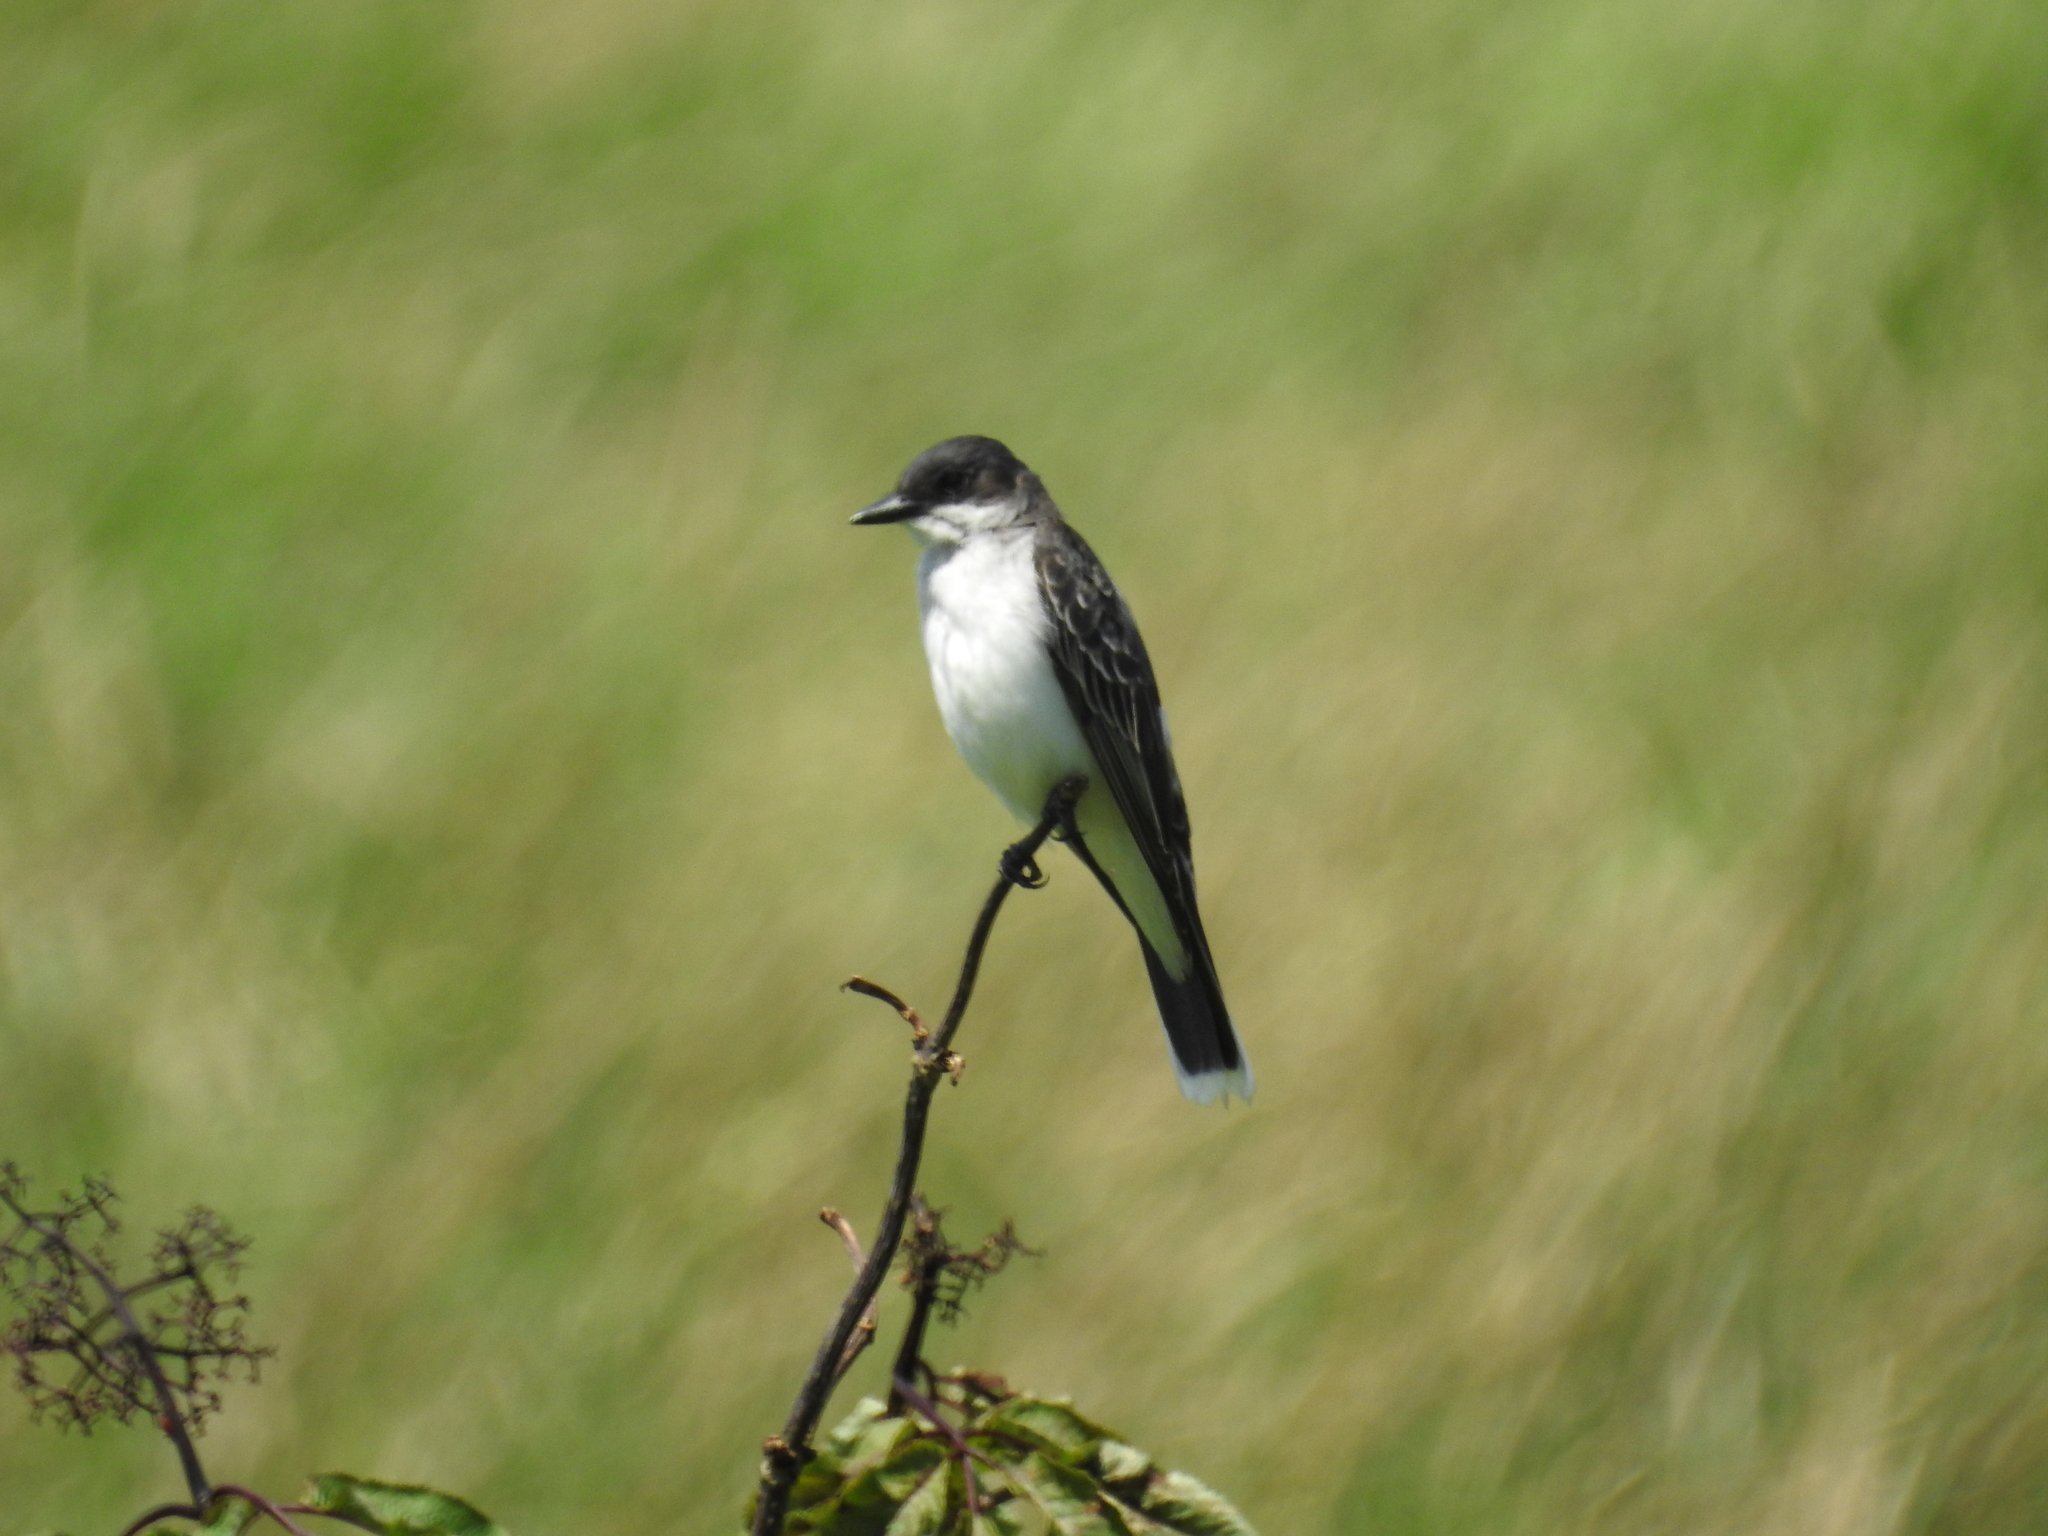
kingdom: Animalia
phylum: Chordata
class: Aves
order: Passeriformes
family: Tyrannidae
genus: Tyrannus
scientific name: Tyrannus tyrannus
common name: Eastern kingbird
